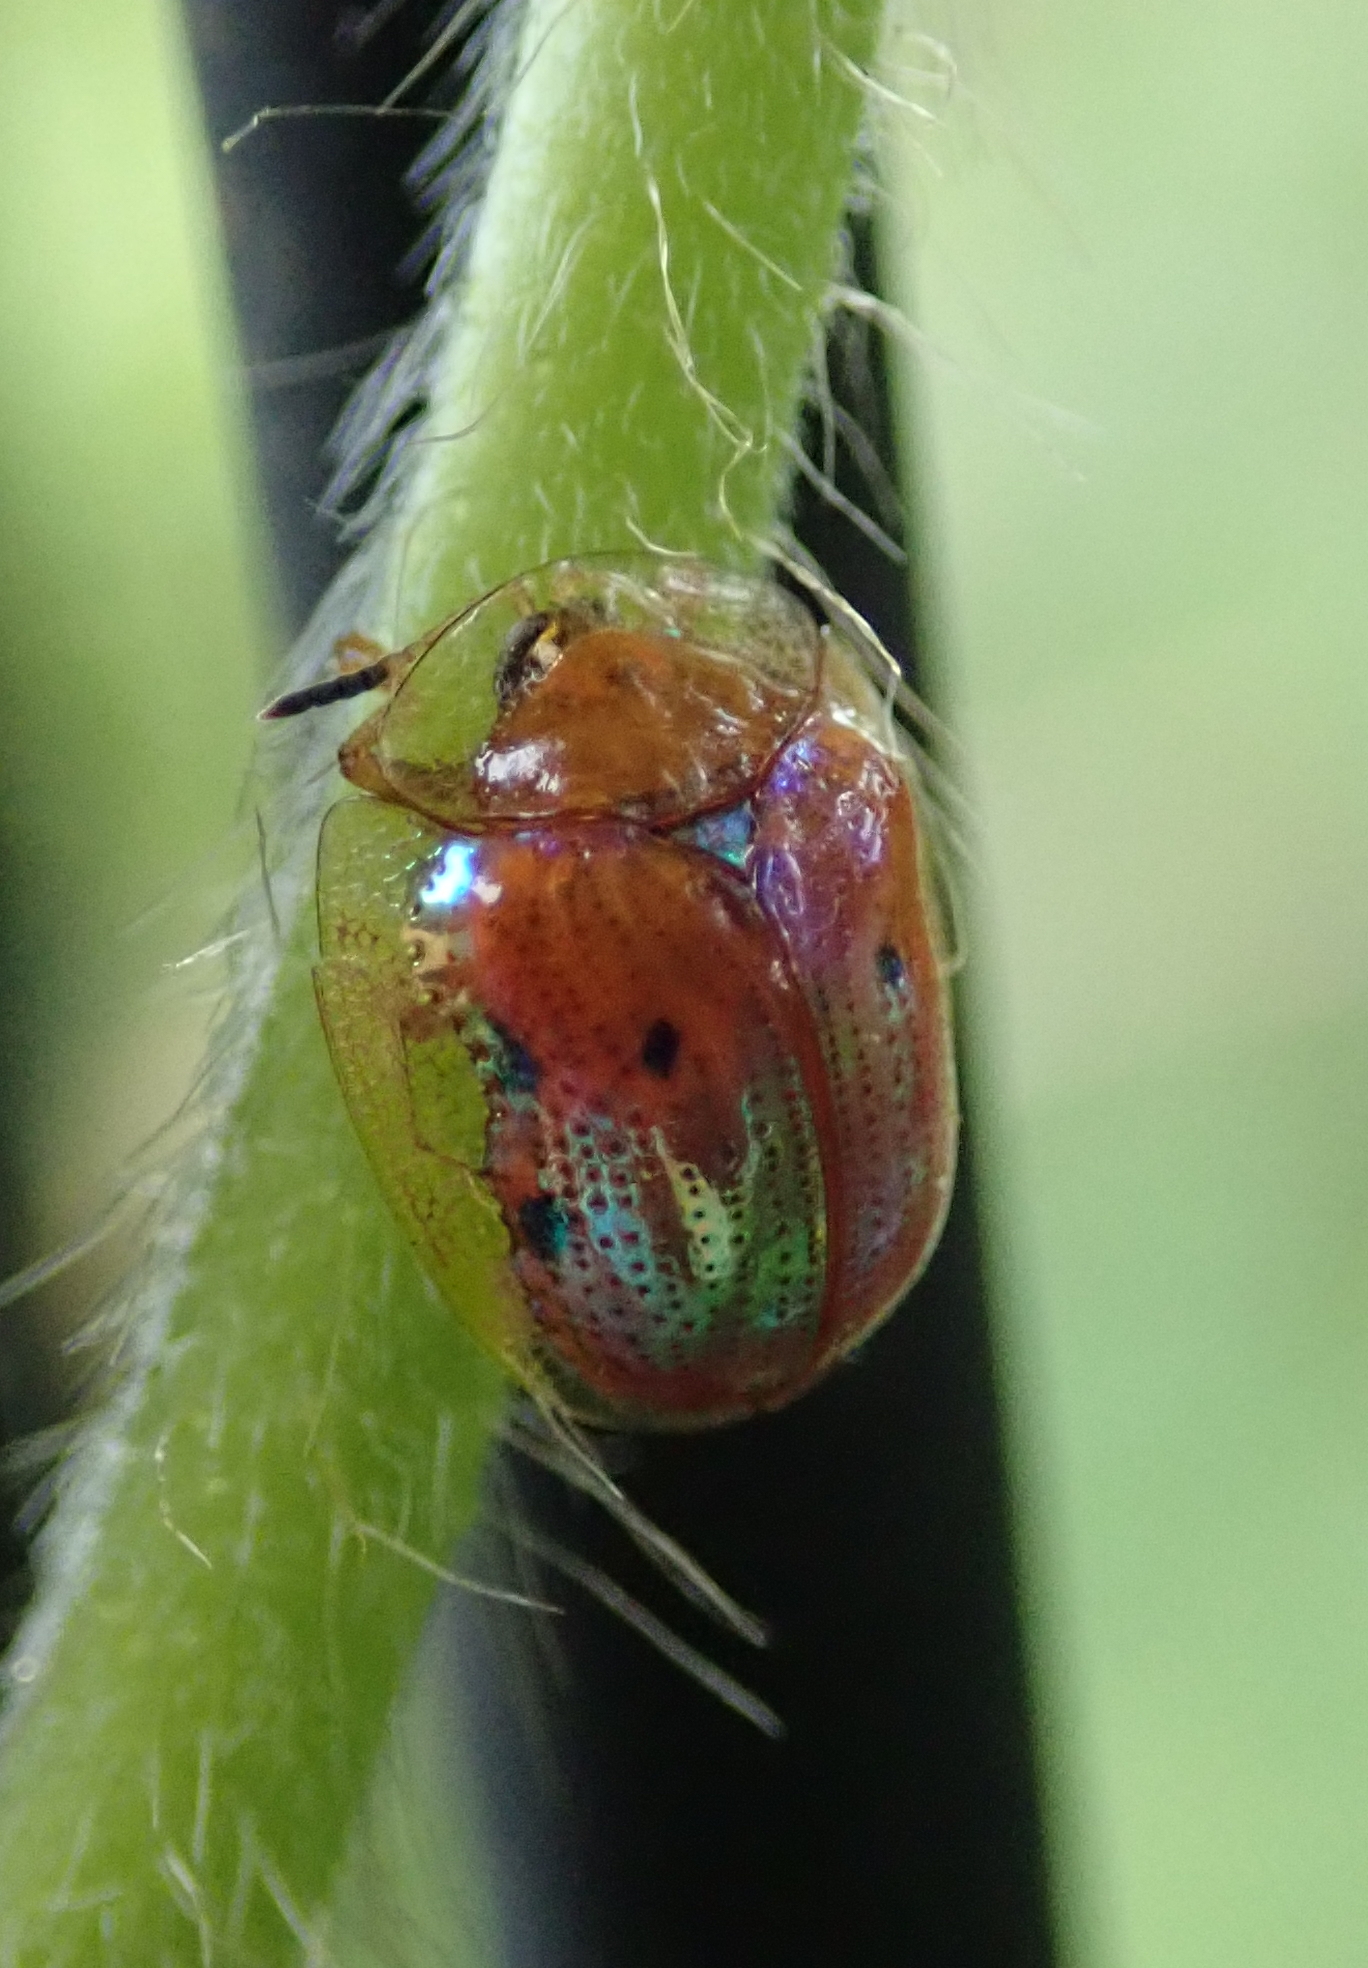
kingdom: Animalia
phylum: Arthropoda
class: Insecta
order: Coleoptera
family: Chrysomelidae
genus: Charidotella
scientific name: Charidotella sexpunctata
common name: Golden tortoise beetle
